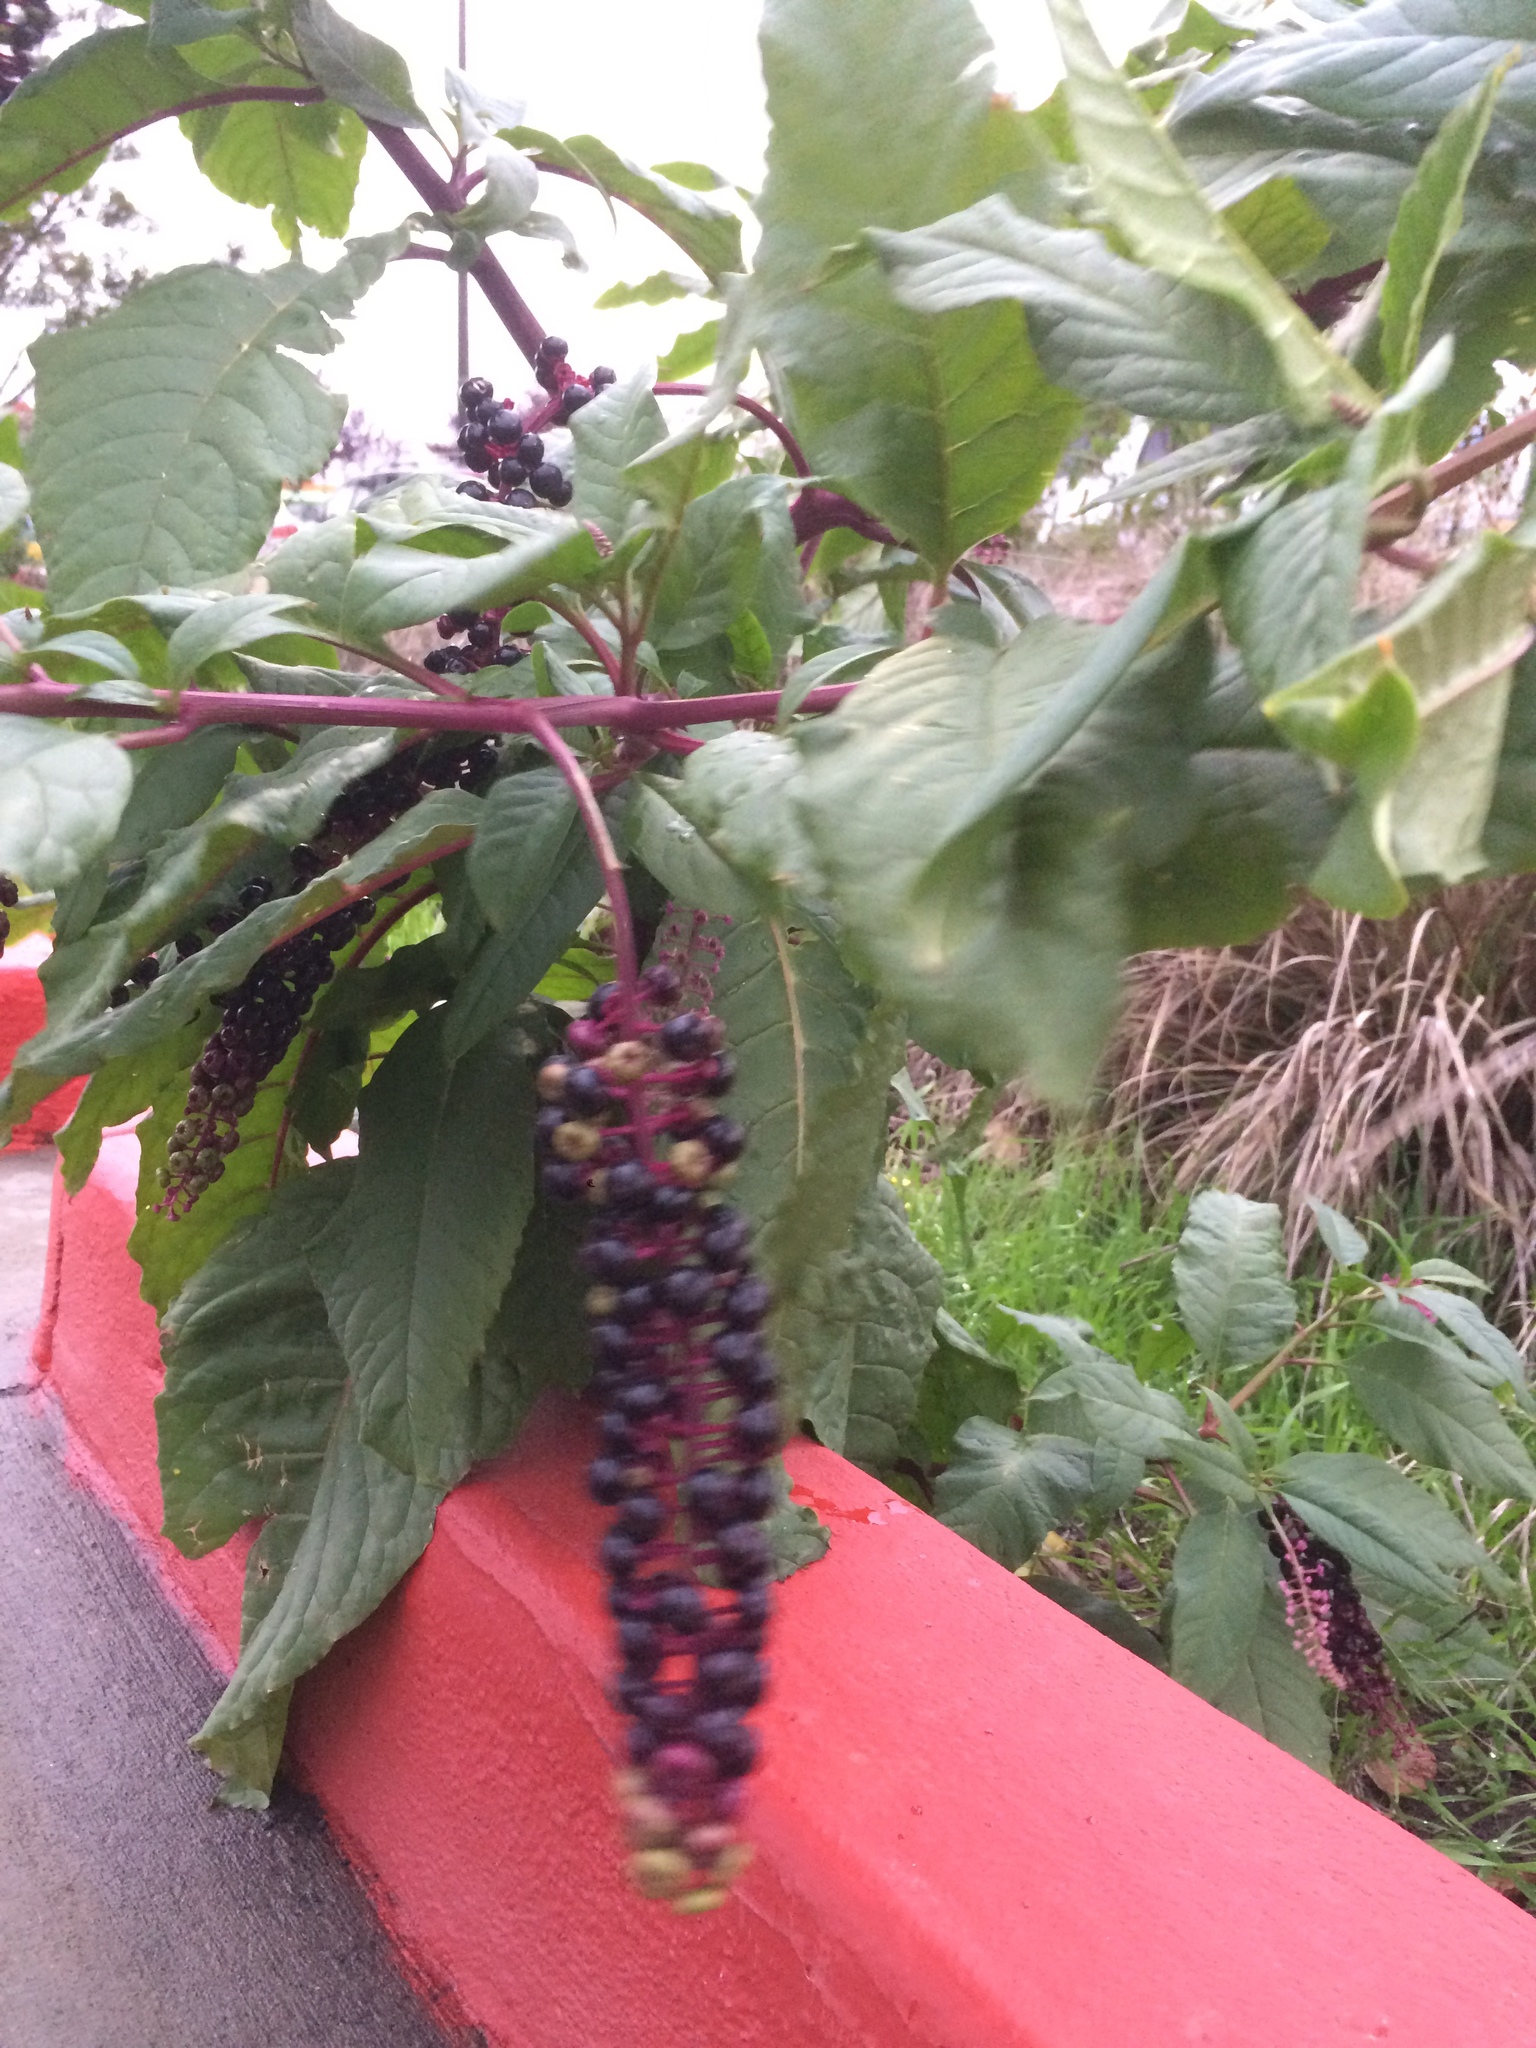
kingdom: Plantae
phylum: Tracheophyta
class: Magnoliopsida
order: Caryophyllales
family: Phytolaccaceae
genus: Phytolacca
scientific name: Phytolacca americana
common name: American pokeweed
